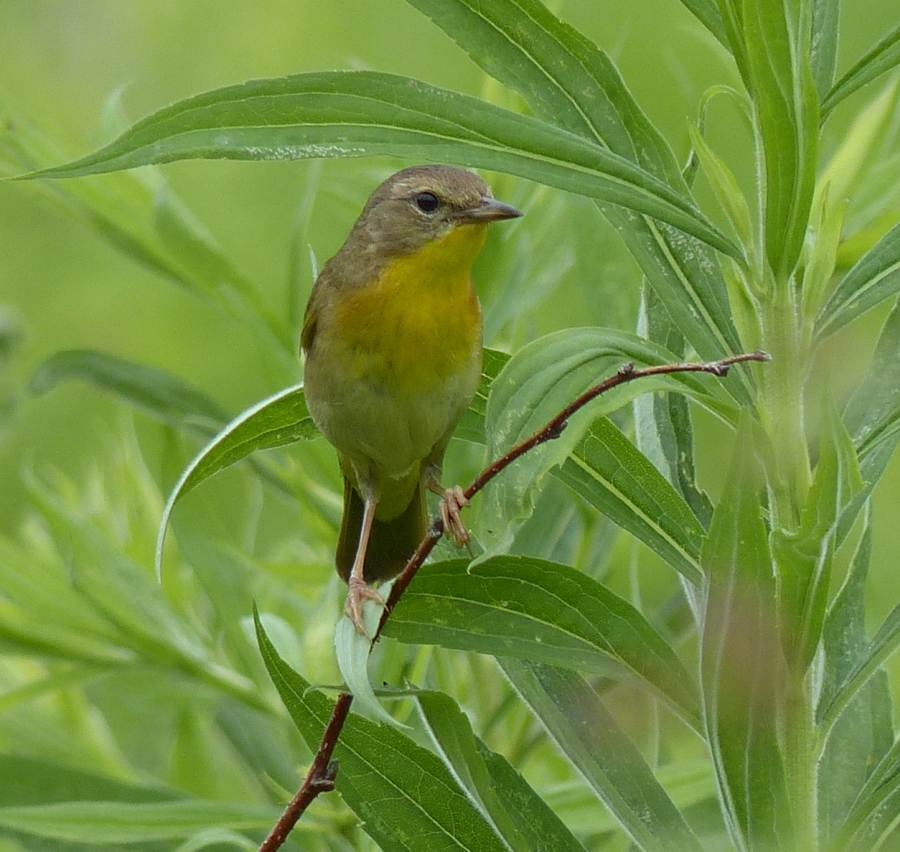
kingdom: Animalia
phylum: Chordata
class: Aves
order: Passeriformes
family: Parulidae
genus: Geothlypis
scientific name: Geothlypis trichas
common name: Common yellowthroat
